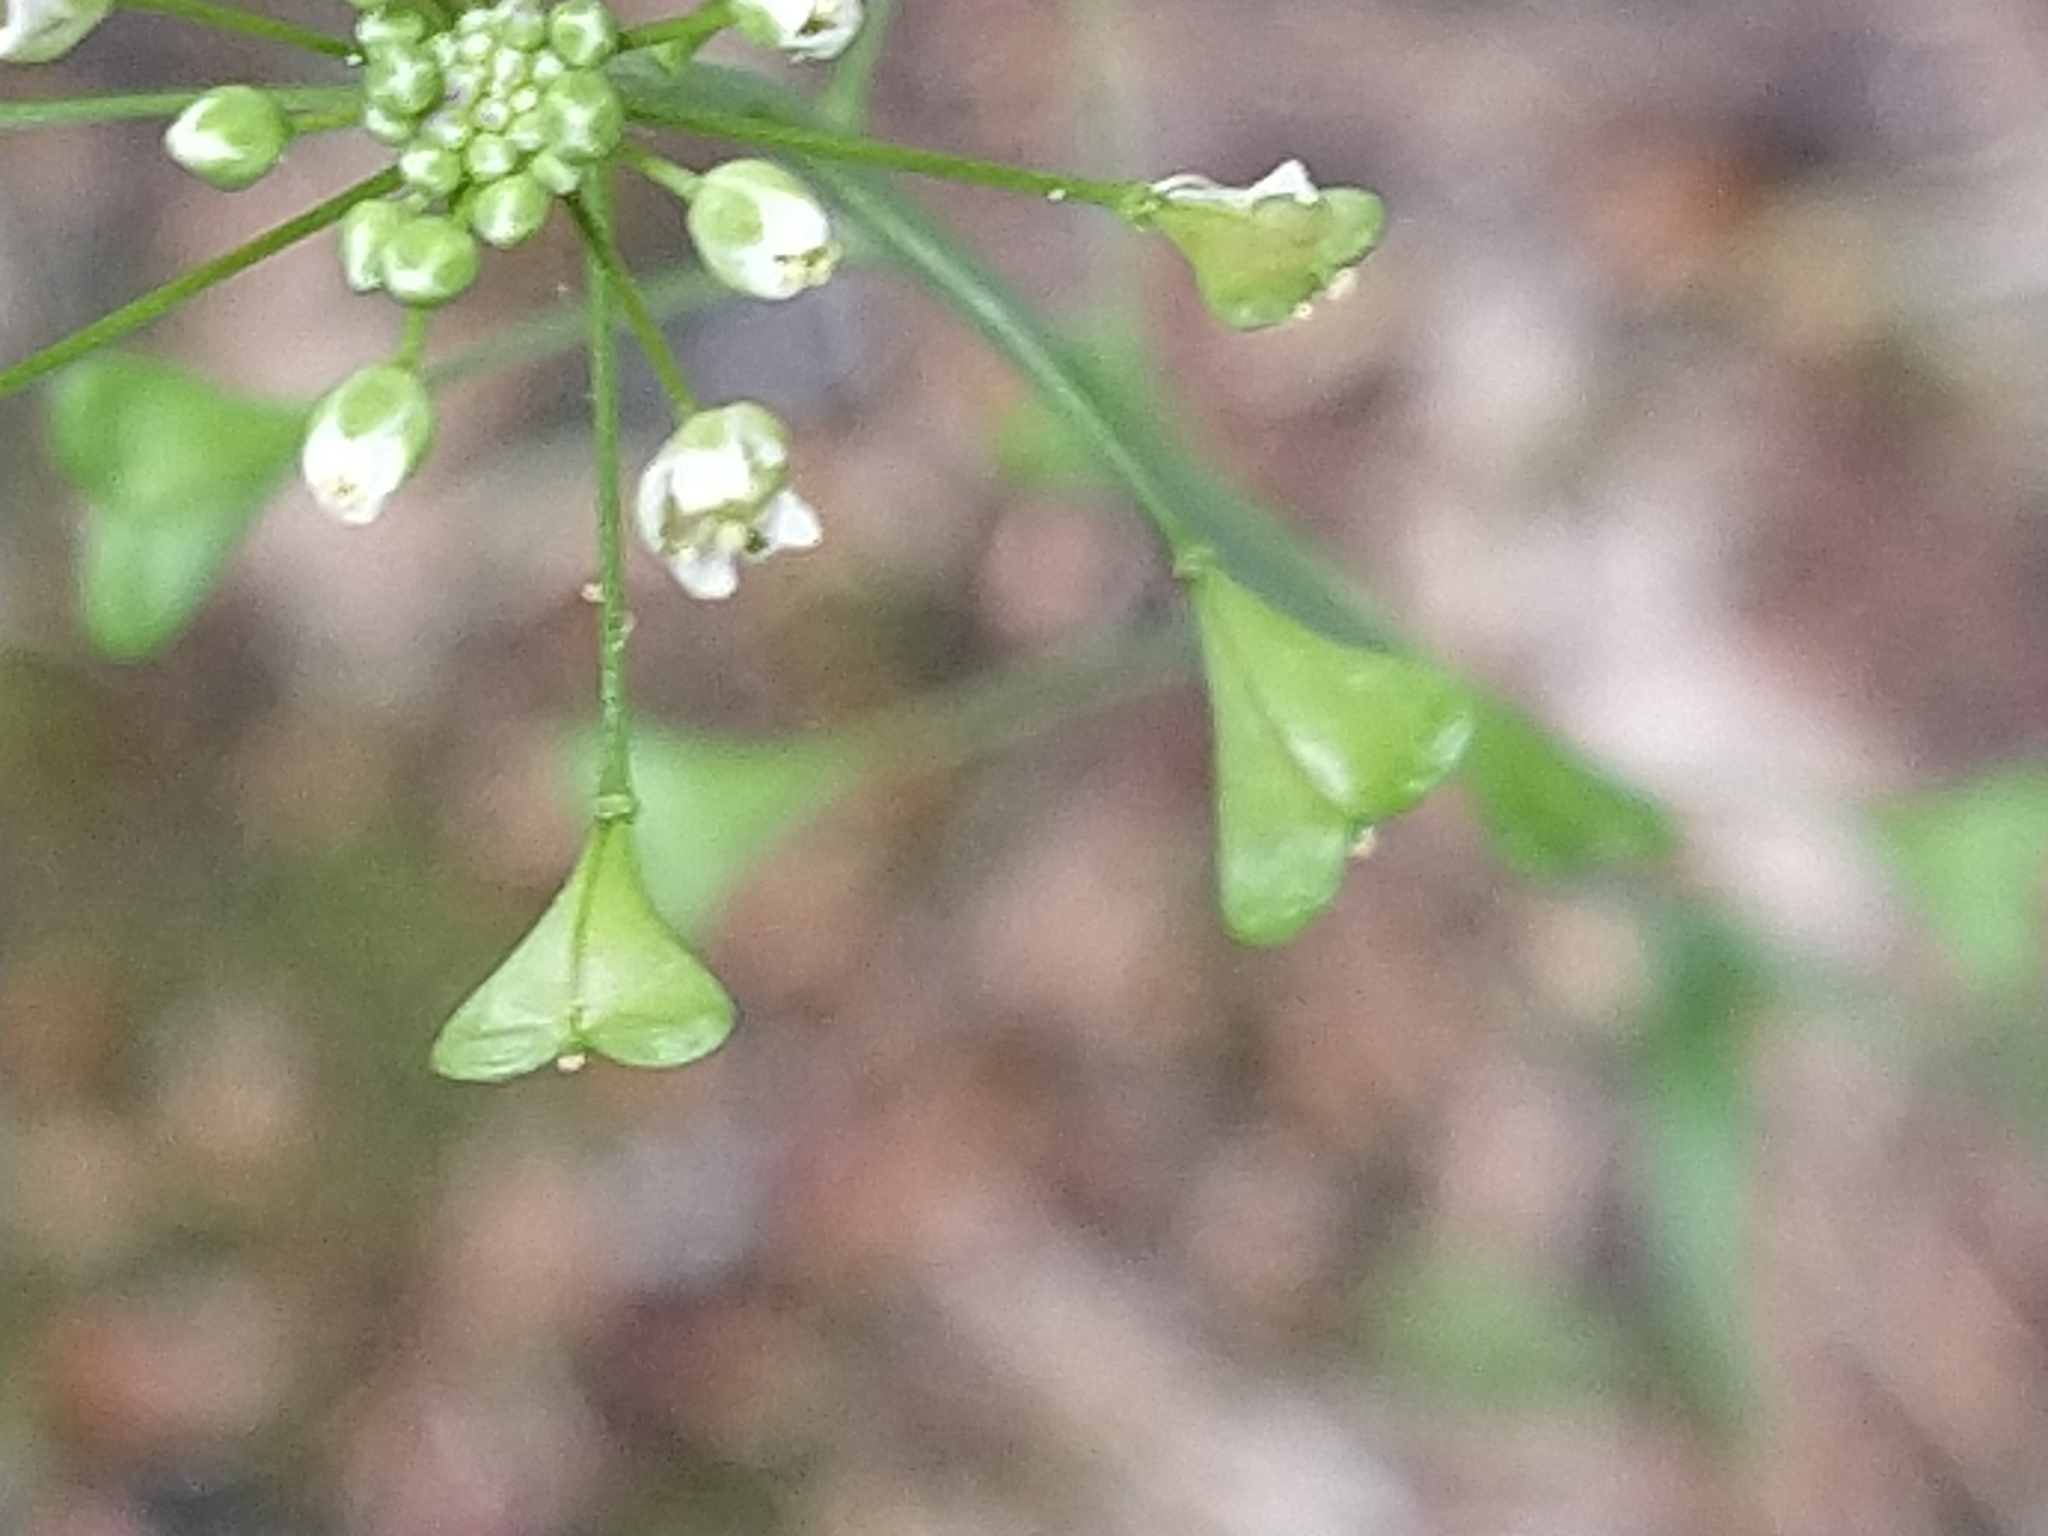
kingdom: Plantae
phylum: Tracheophyta
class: Magnoliopsida
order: Brassicales
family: Brassicaceae
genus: Capsella
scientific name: Capsella bursa-pastoris
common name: Shepherd's purse
